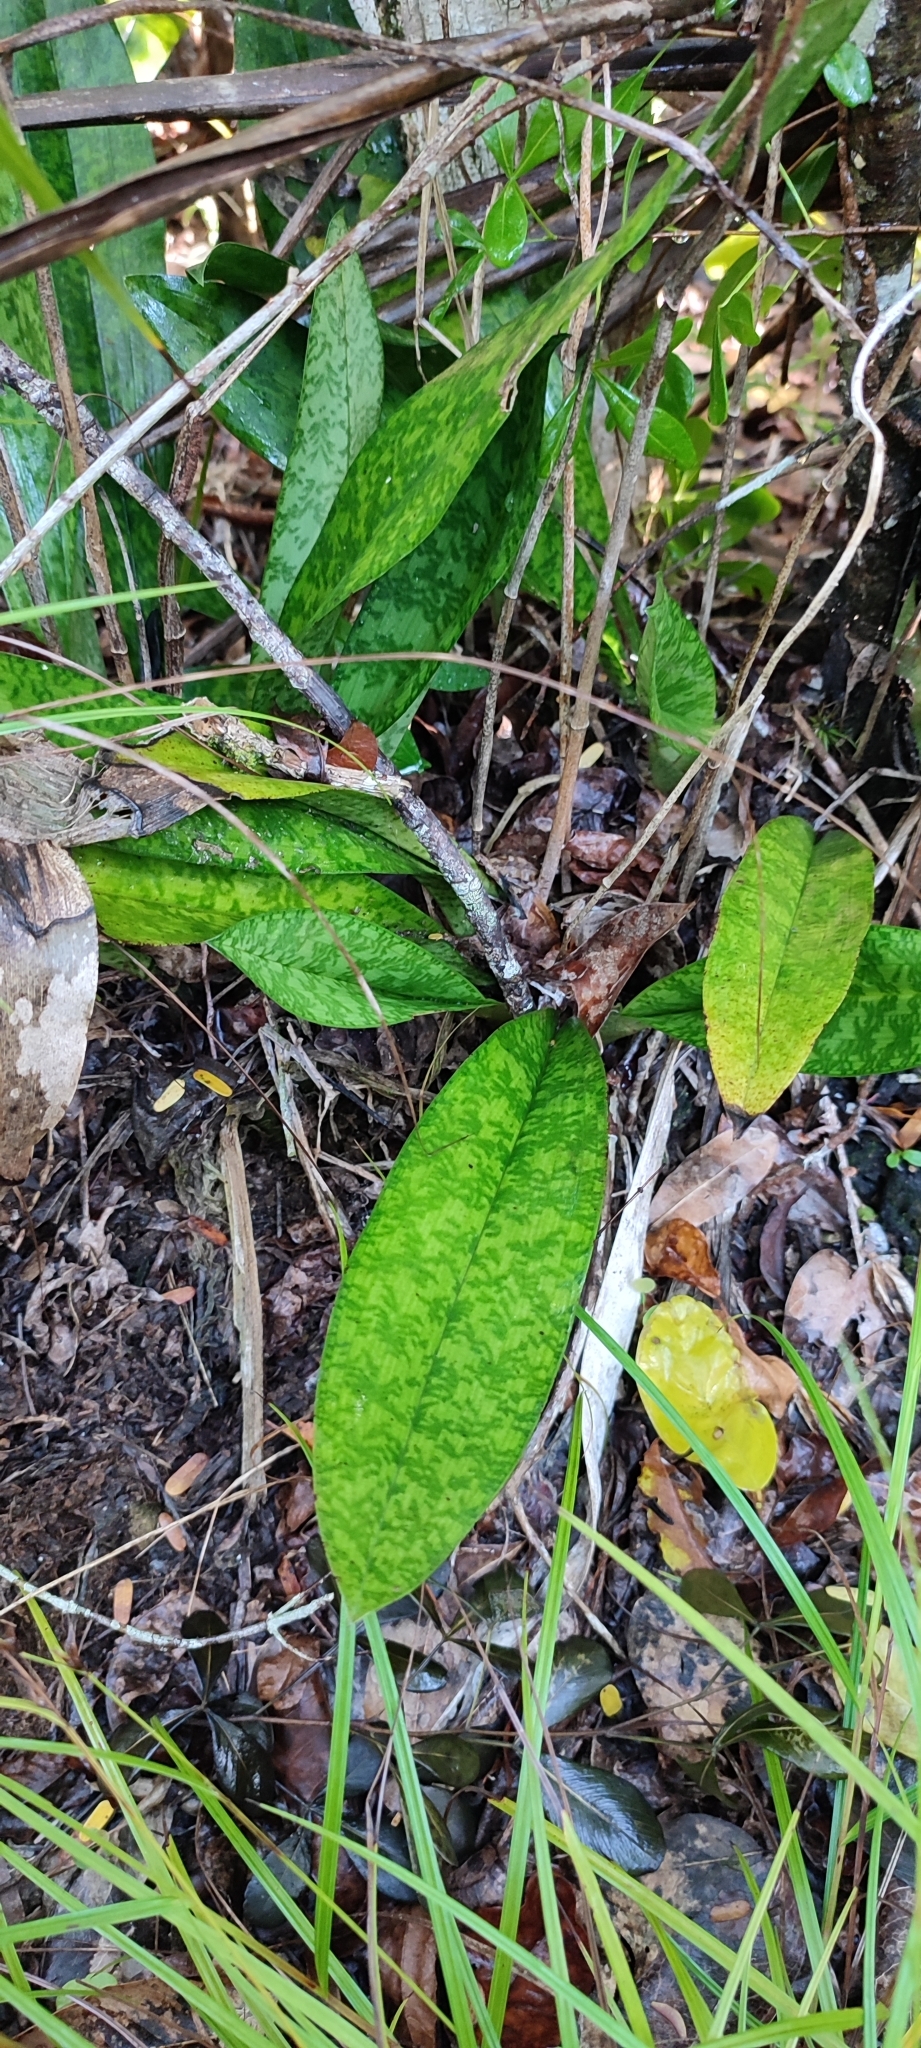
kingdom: Plantae
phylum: Tracheophyta
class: Liliopsida
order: Asparagales
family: Orchidaceae
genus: Eulophia
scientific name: Eulophia maculata
